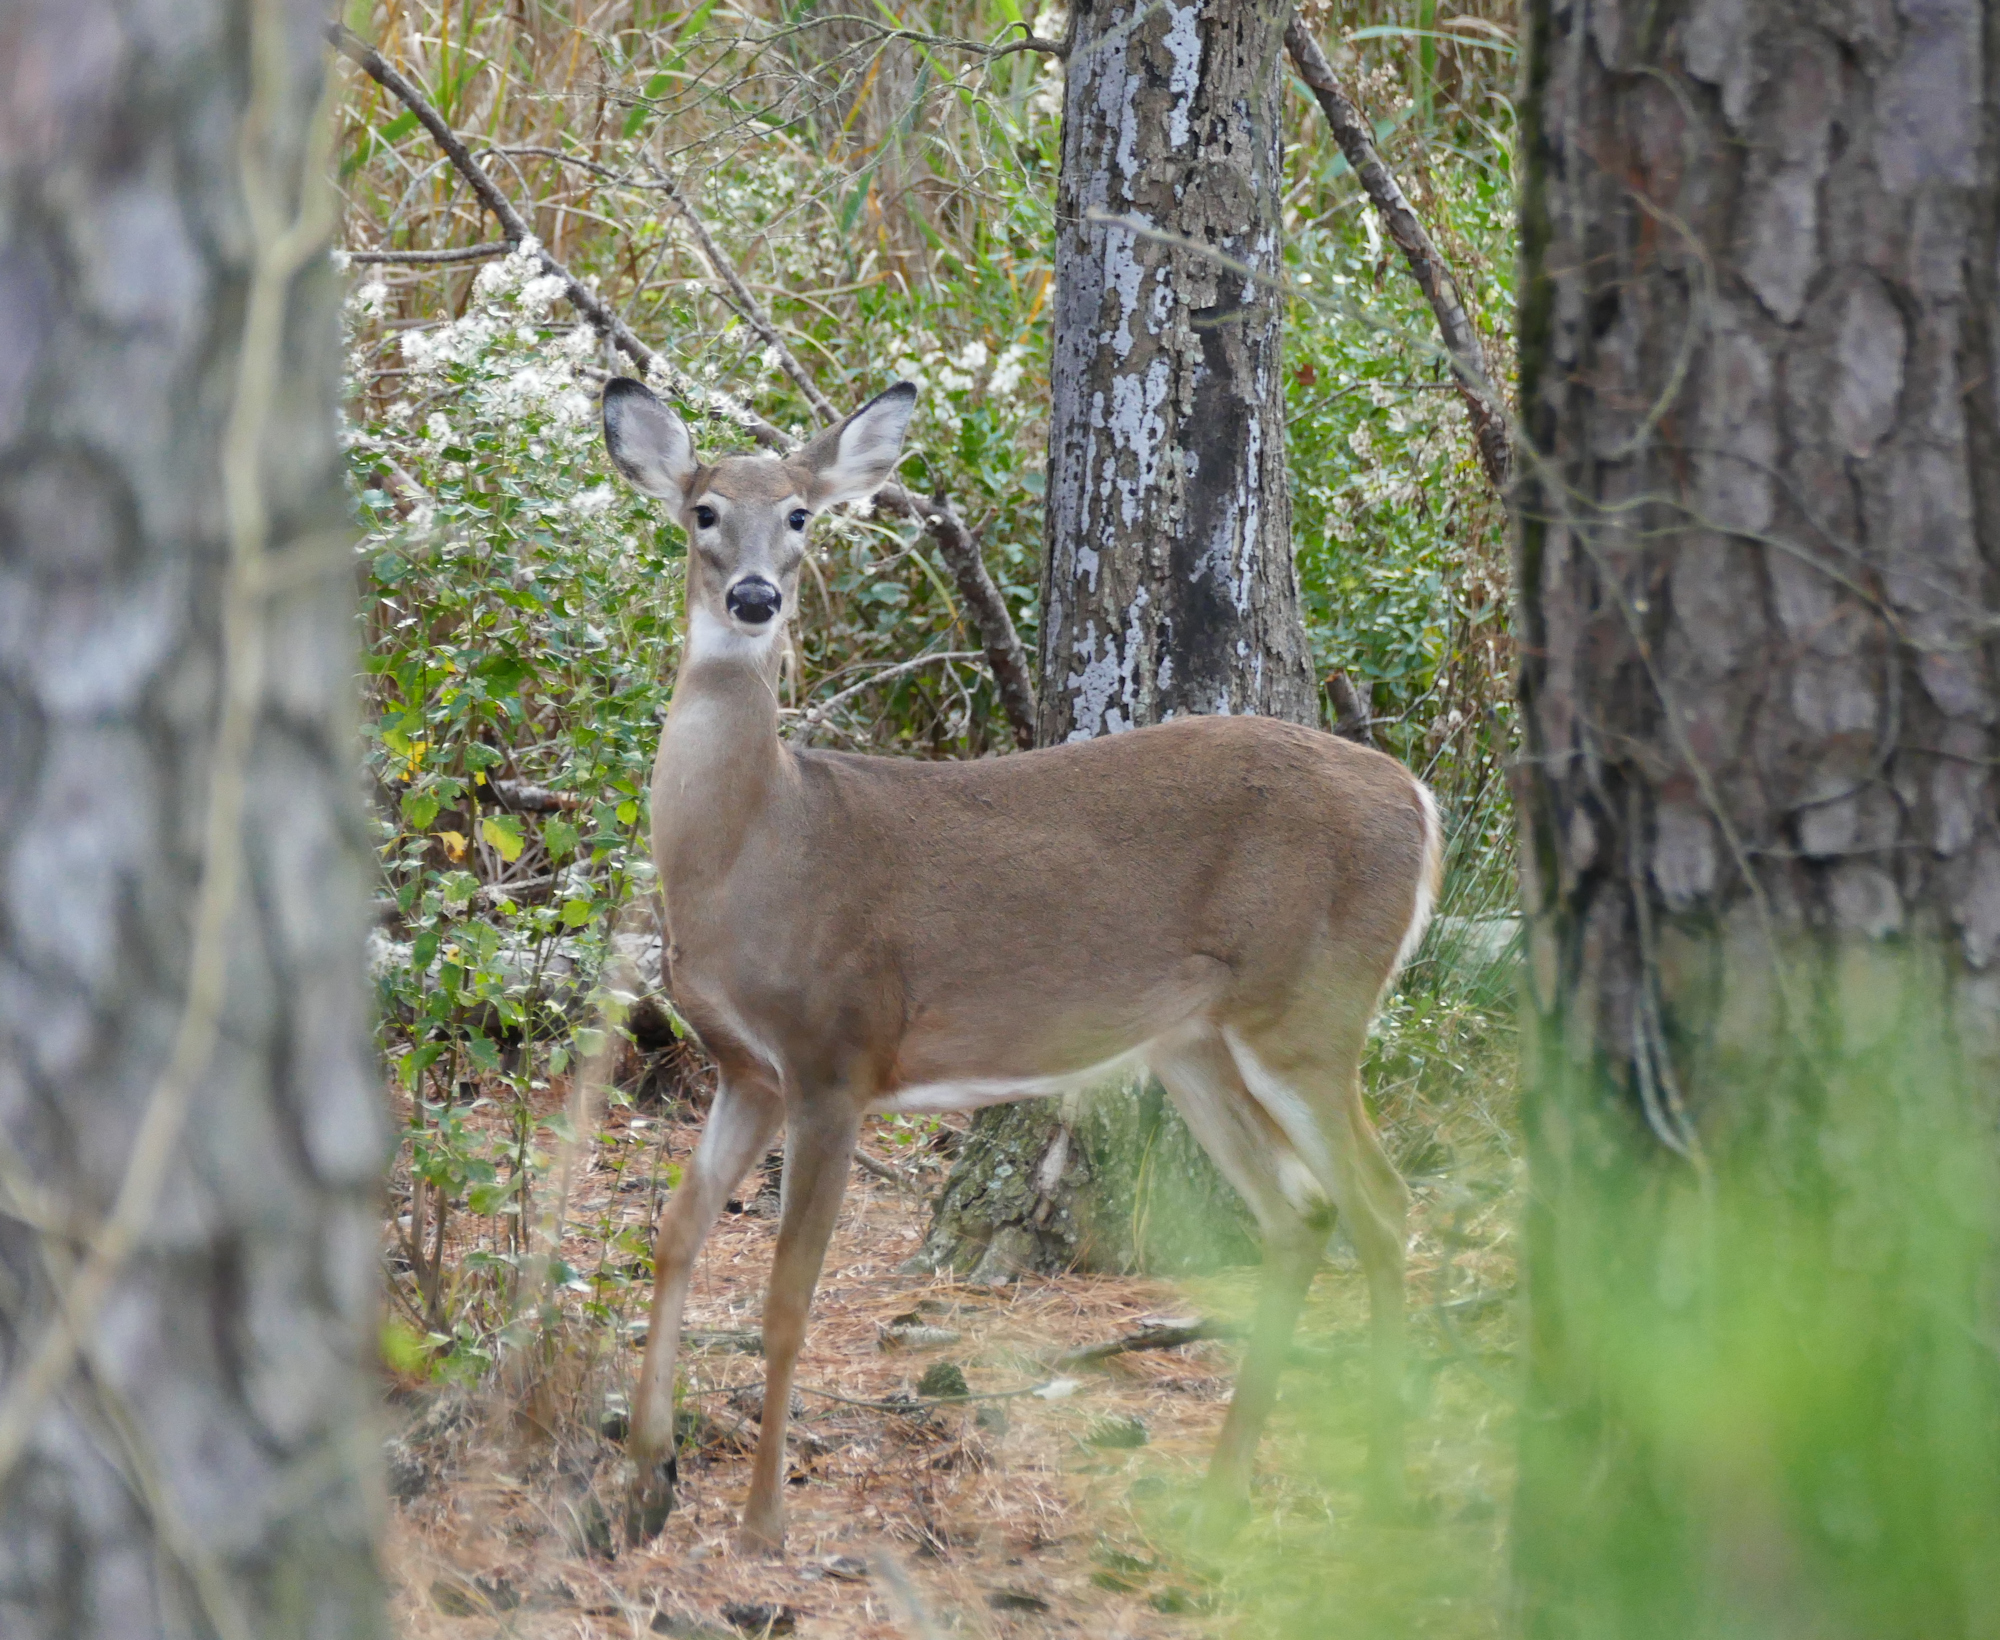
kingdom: Animalia
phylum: Chordata
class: Mammalia
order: Artiodactyla
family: Cervidae
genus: Odocoileus
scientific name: Odocoileus virginianus
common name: White-tailed deer
